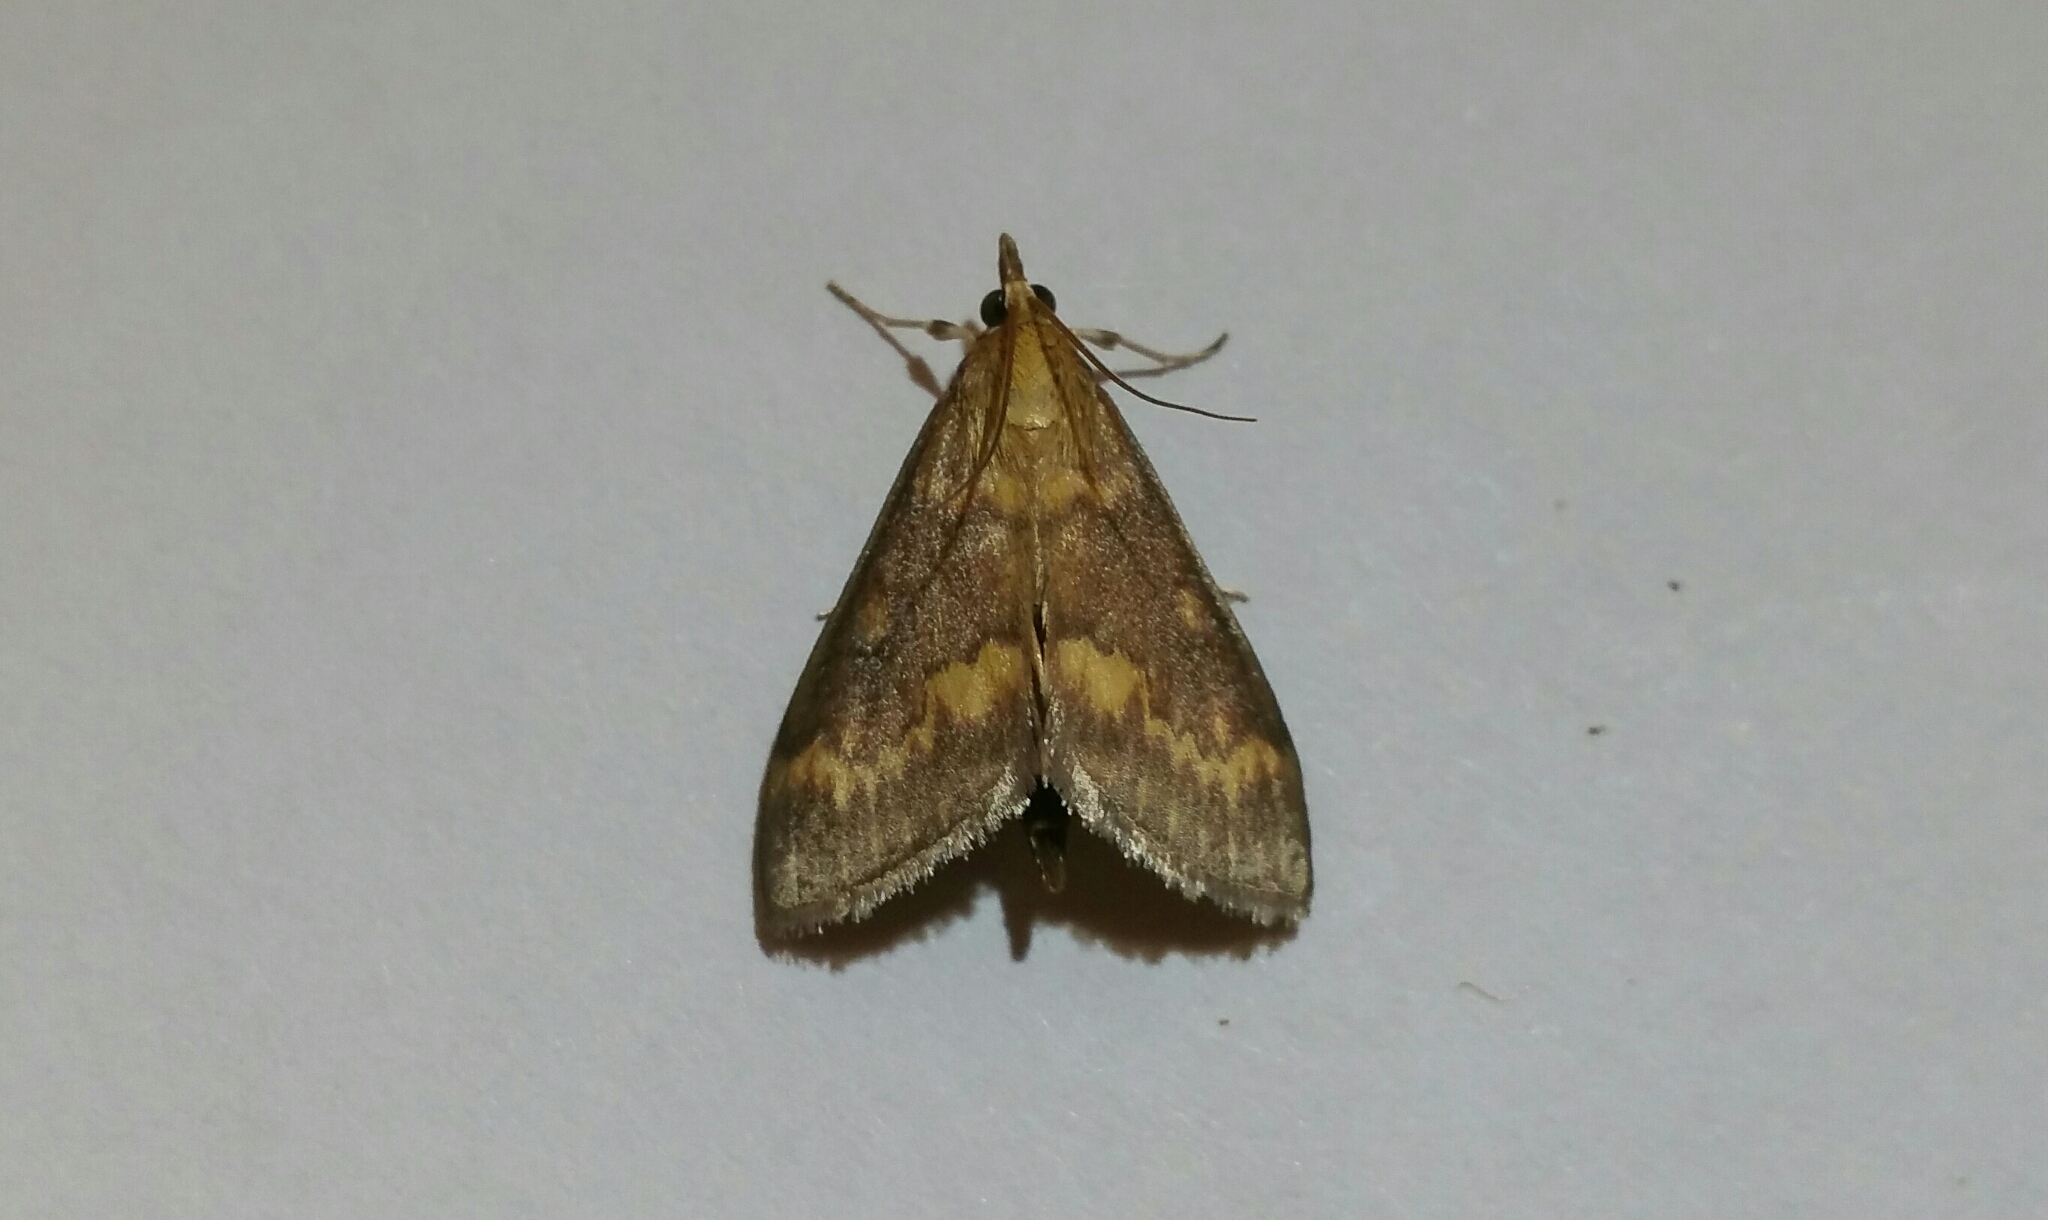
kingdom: Animalia
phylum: Arthropoda
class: Insecta
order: Lepidoptera
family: Crambidae
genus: Ostrinia
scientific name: Ostrinia nubilalis
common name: European corn borer
